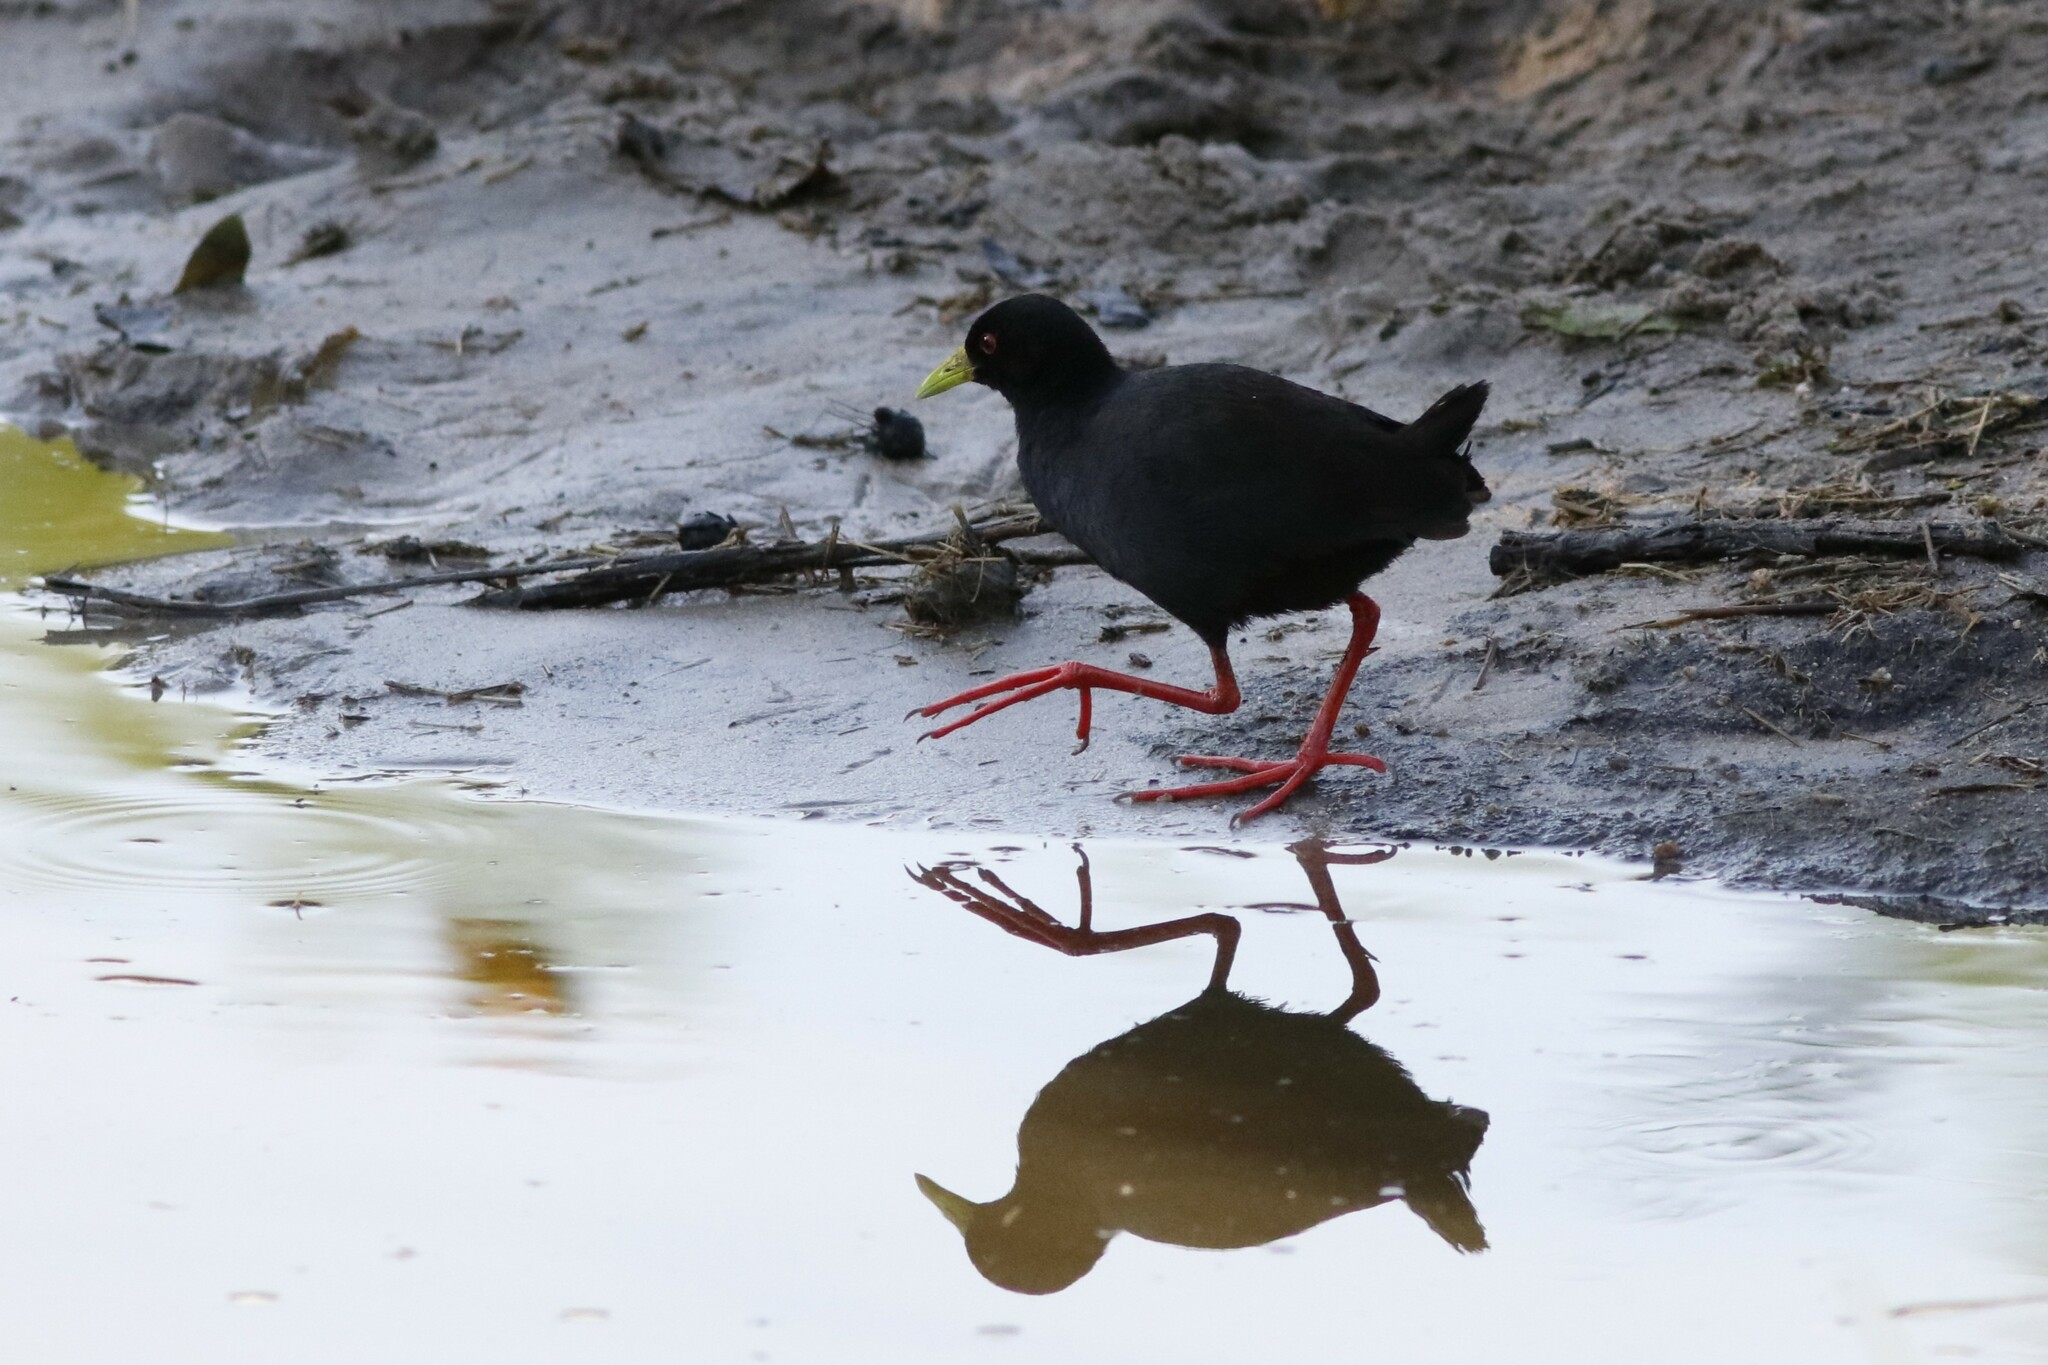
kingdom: Animalia
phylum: Chordata
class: Aves
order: Gruiformes
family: Rallidae
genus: Amaurornis
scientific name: Amaurornis flavirostra
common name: Black crake
